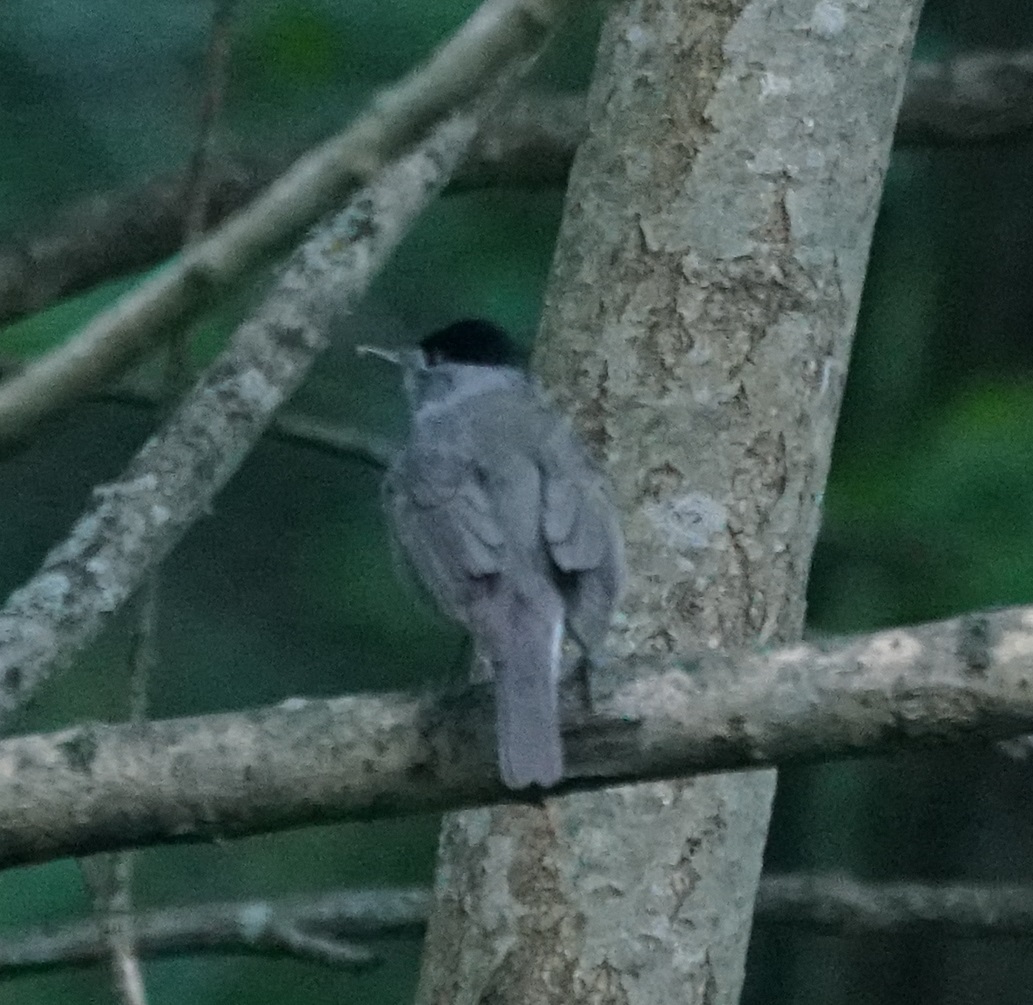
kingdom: Animalia
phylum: Chordata
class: Aves
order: Passeriformes
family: Sylviidae
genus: Sylvia
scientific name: Sylvia atricapilla
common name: Eurasian blackcap
